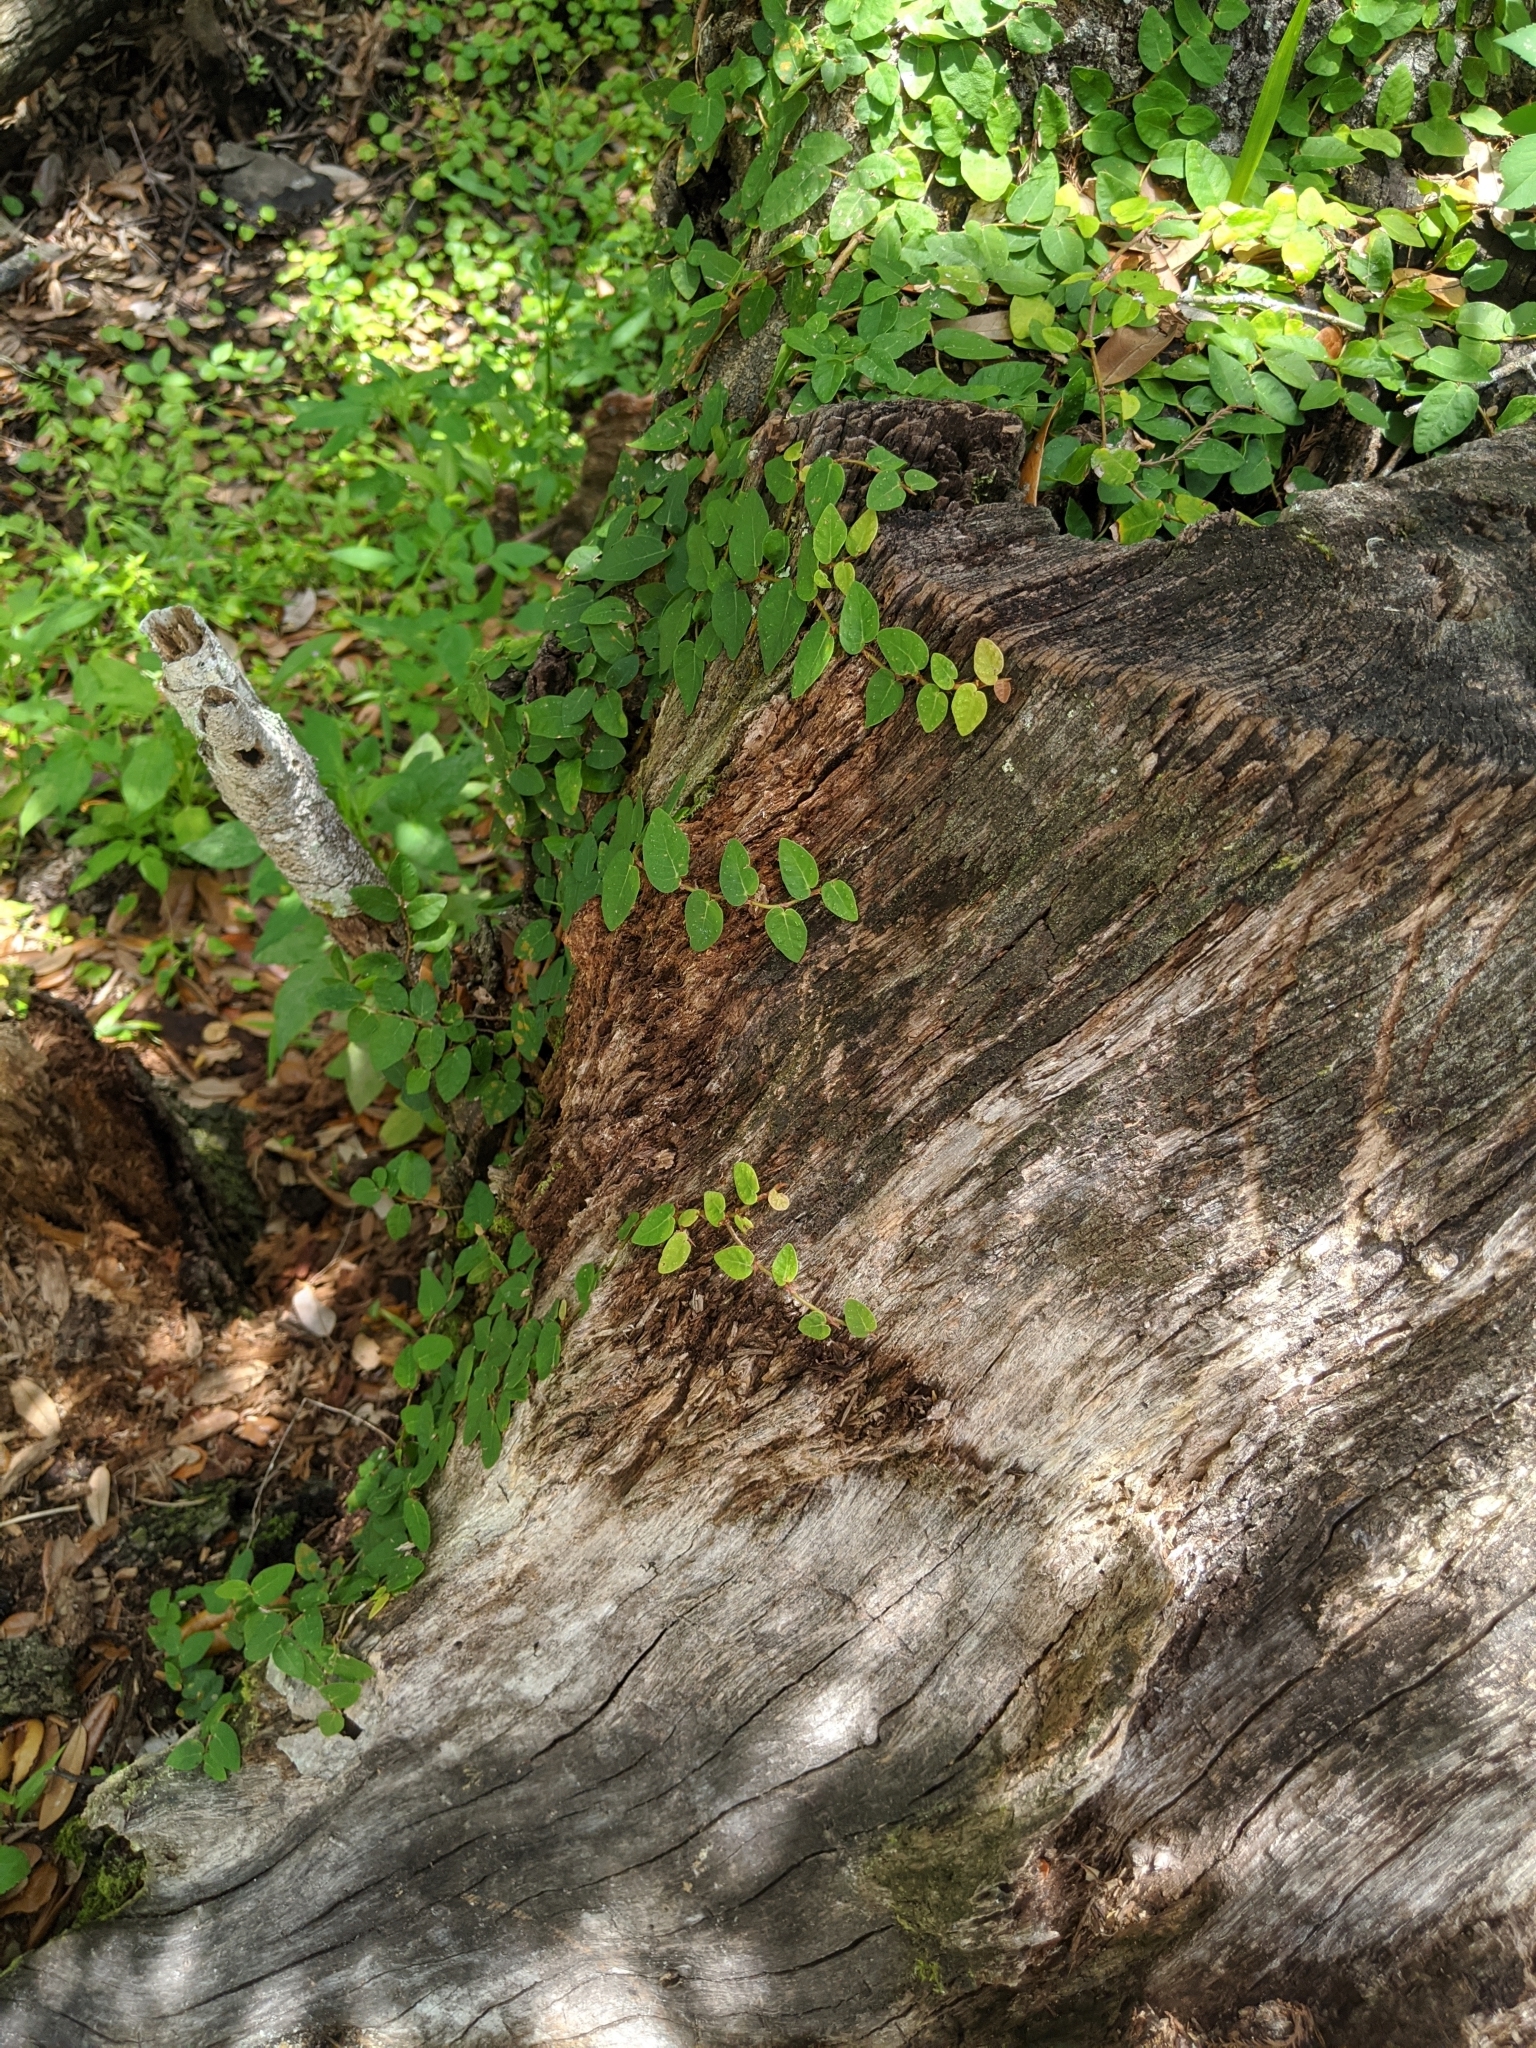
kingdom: Plantae
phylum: Tracheophyta
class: Magnoliopsida
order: Rosales
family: Moraceae
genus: Ficus
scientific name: Ficus pumila
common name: Climbingfig
